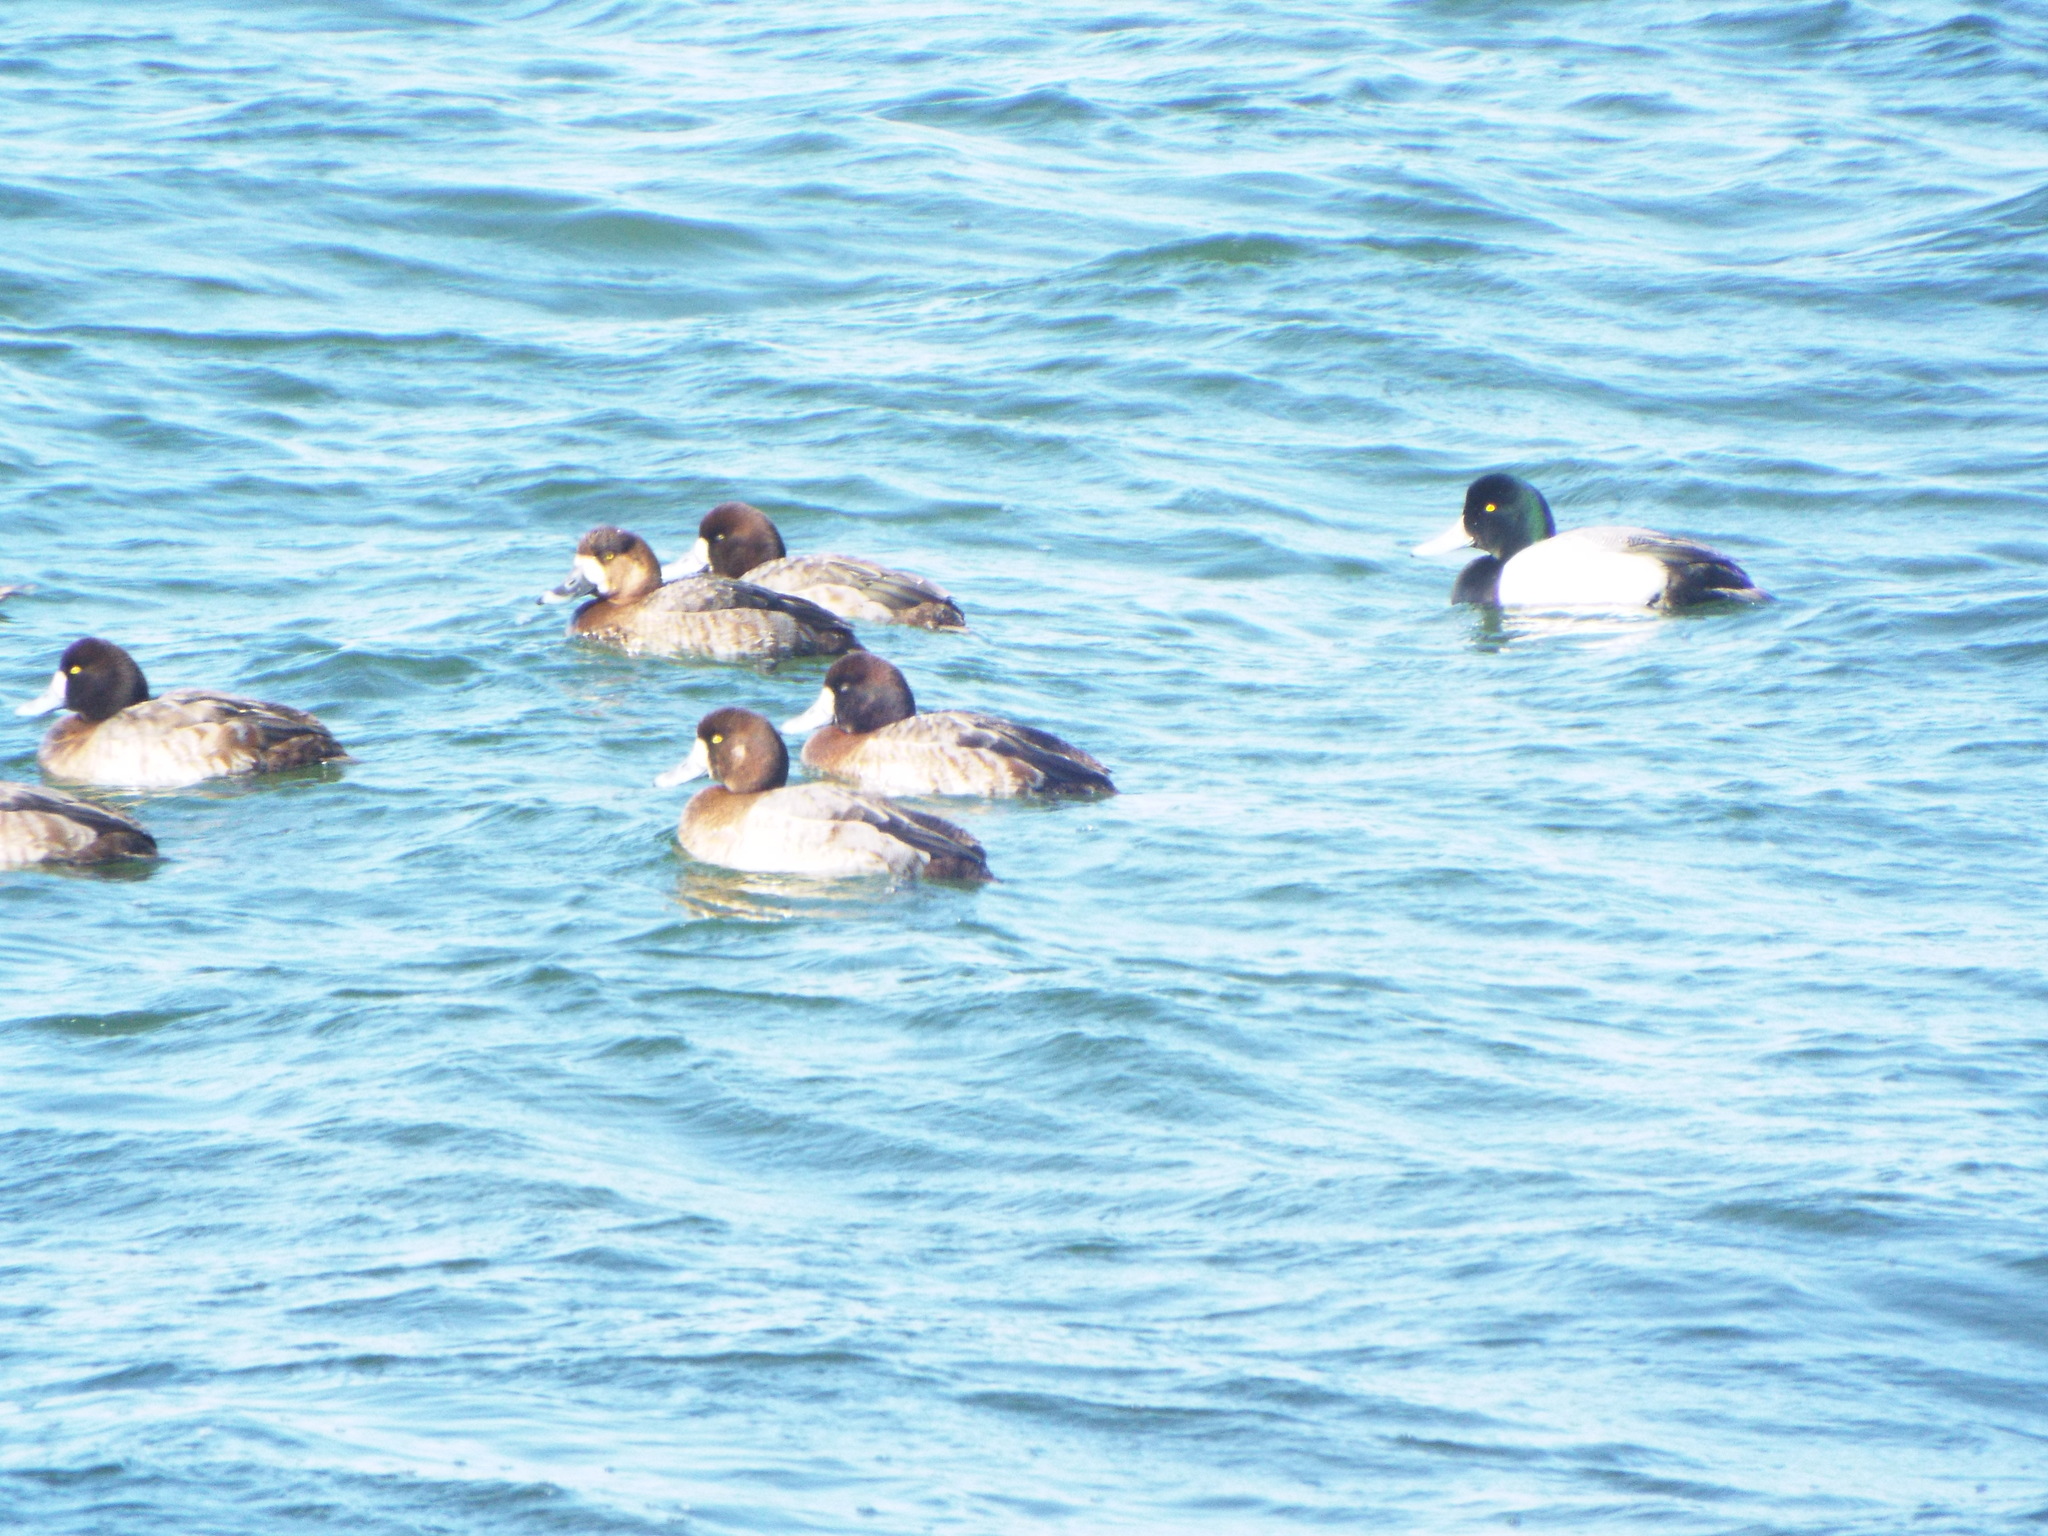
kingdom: Animalia
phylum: Chordata
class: Aves
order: Anseriformes
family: Anatidae
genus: Aythya
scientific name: Aythya marila
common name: Greater scaup
